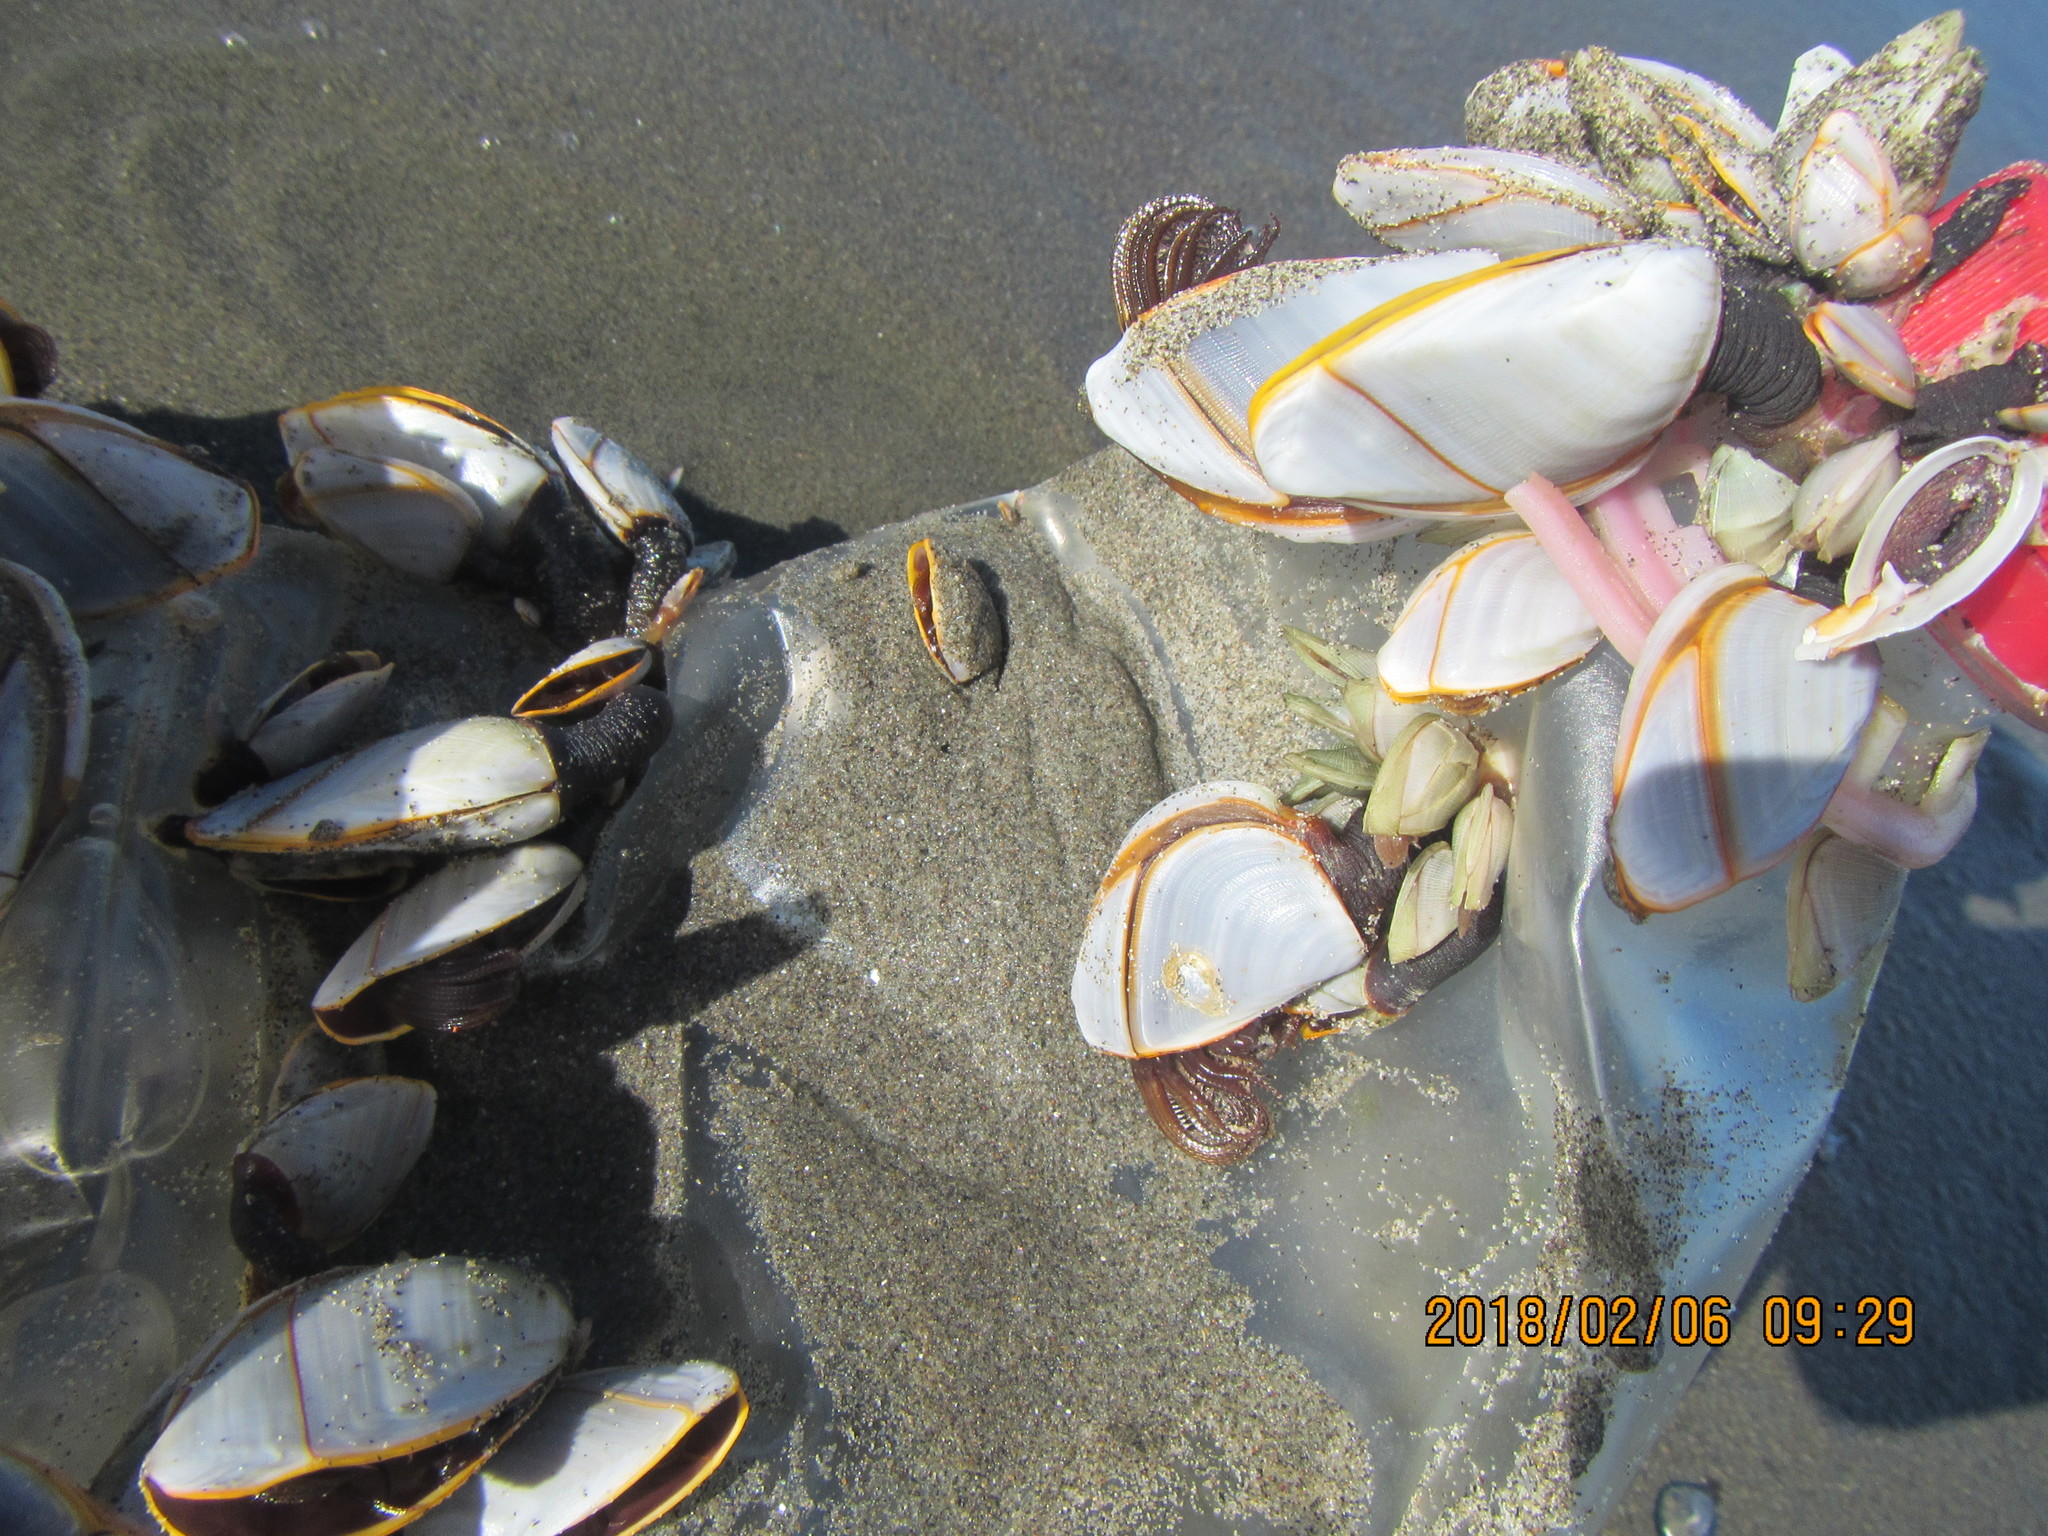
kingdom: Animalia
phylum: Arthropoda
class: Maxillopoda
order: Pedunculata
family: Lepadidae
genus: Lepas
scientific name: Lepas anatifera
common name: Common goose barnacle
